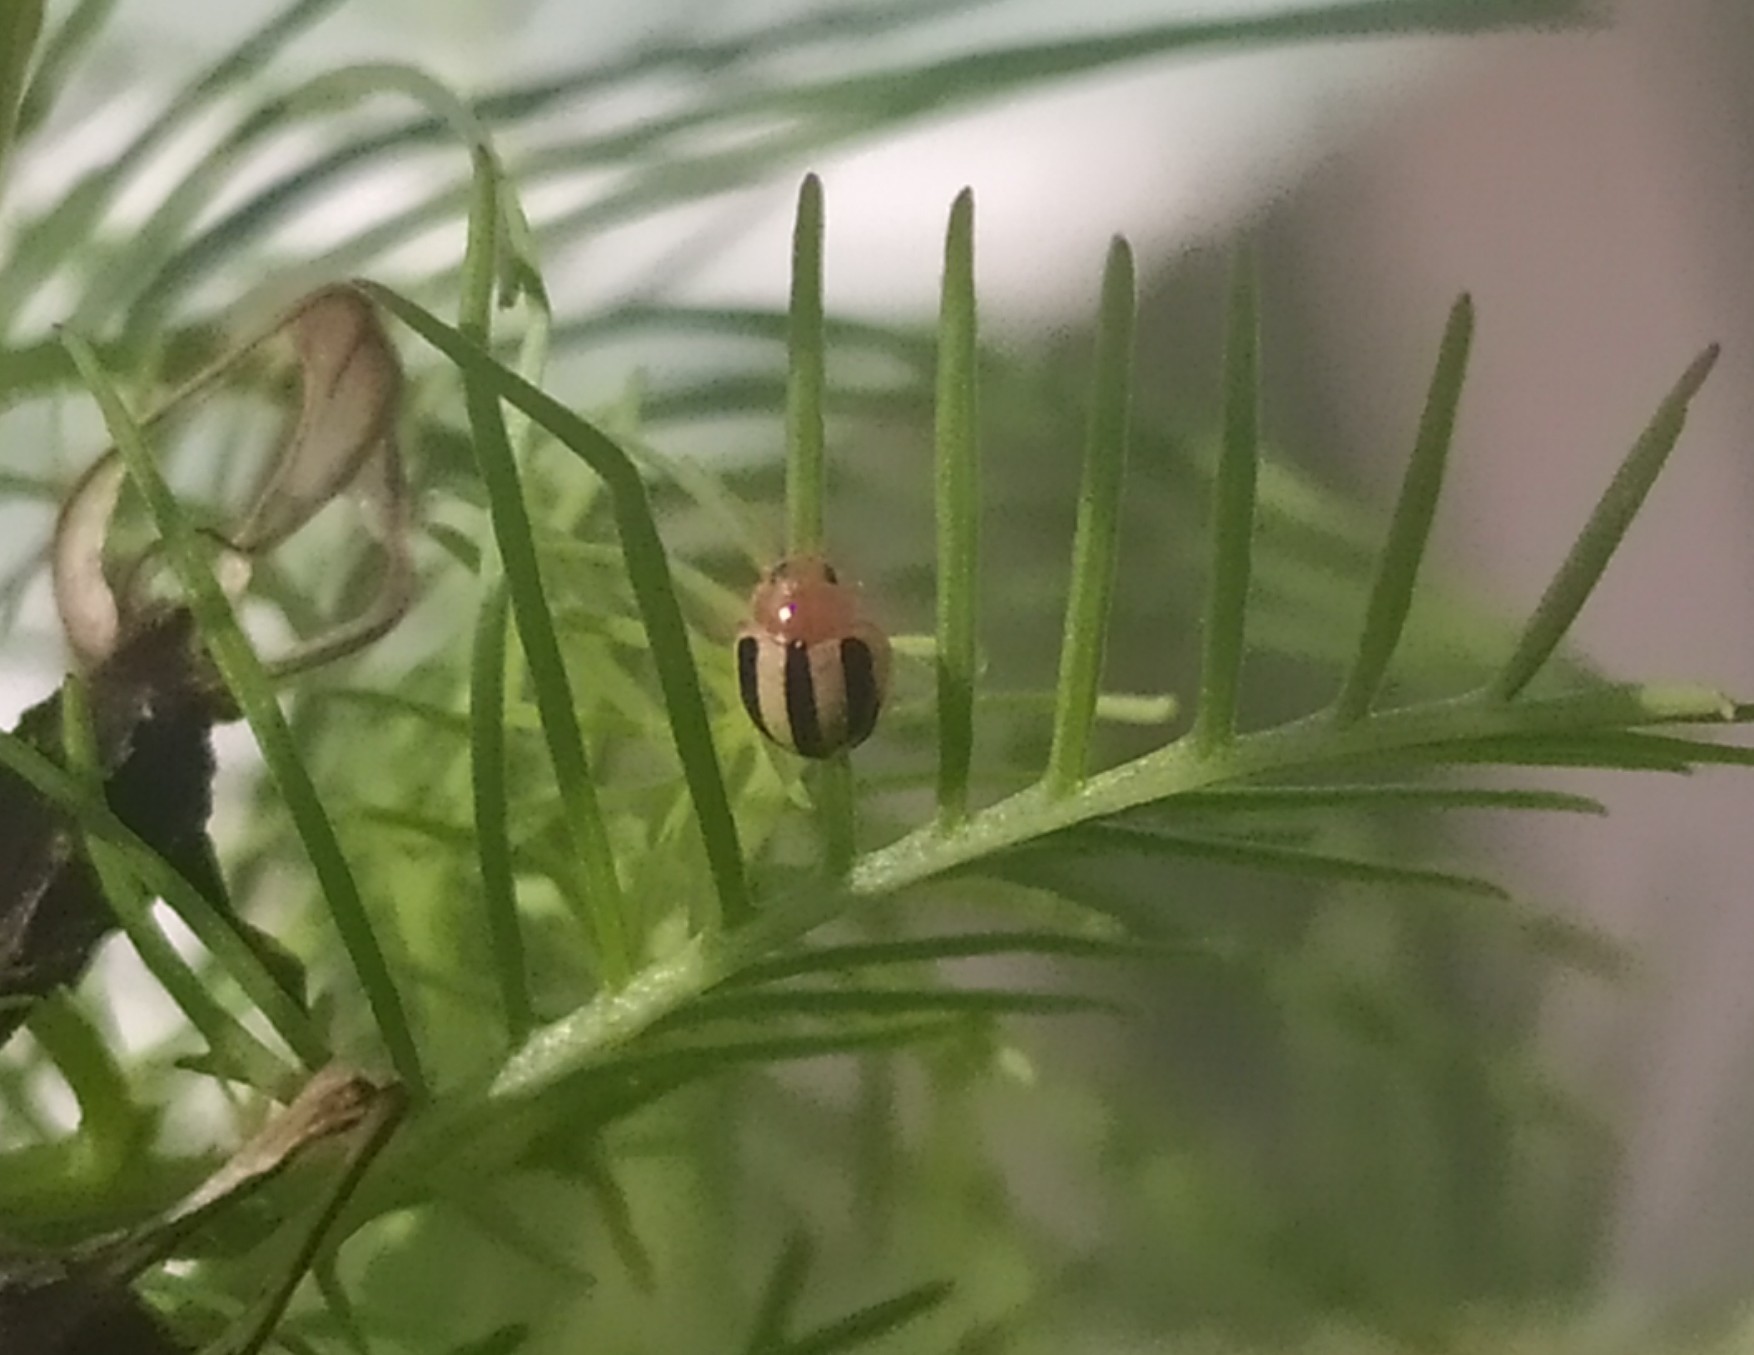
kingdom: Animalia
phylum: Arthropoda
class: Insecta
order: Coleoptera
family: Coccinellidae
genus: Brumoides
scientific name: Brumoides suturalis
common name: Threestriped lady beetle
